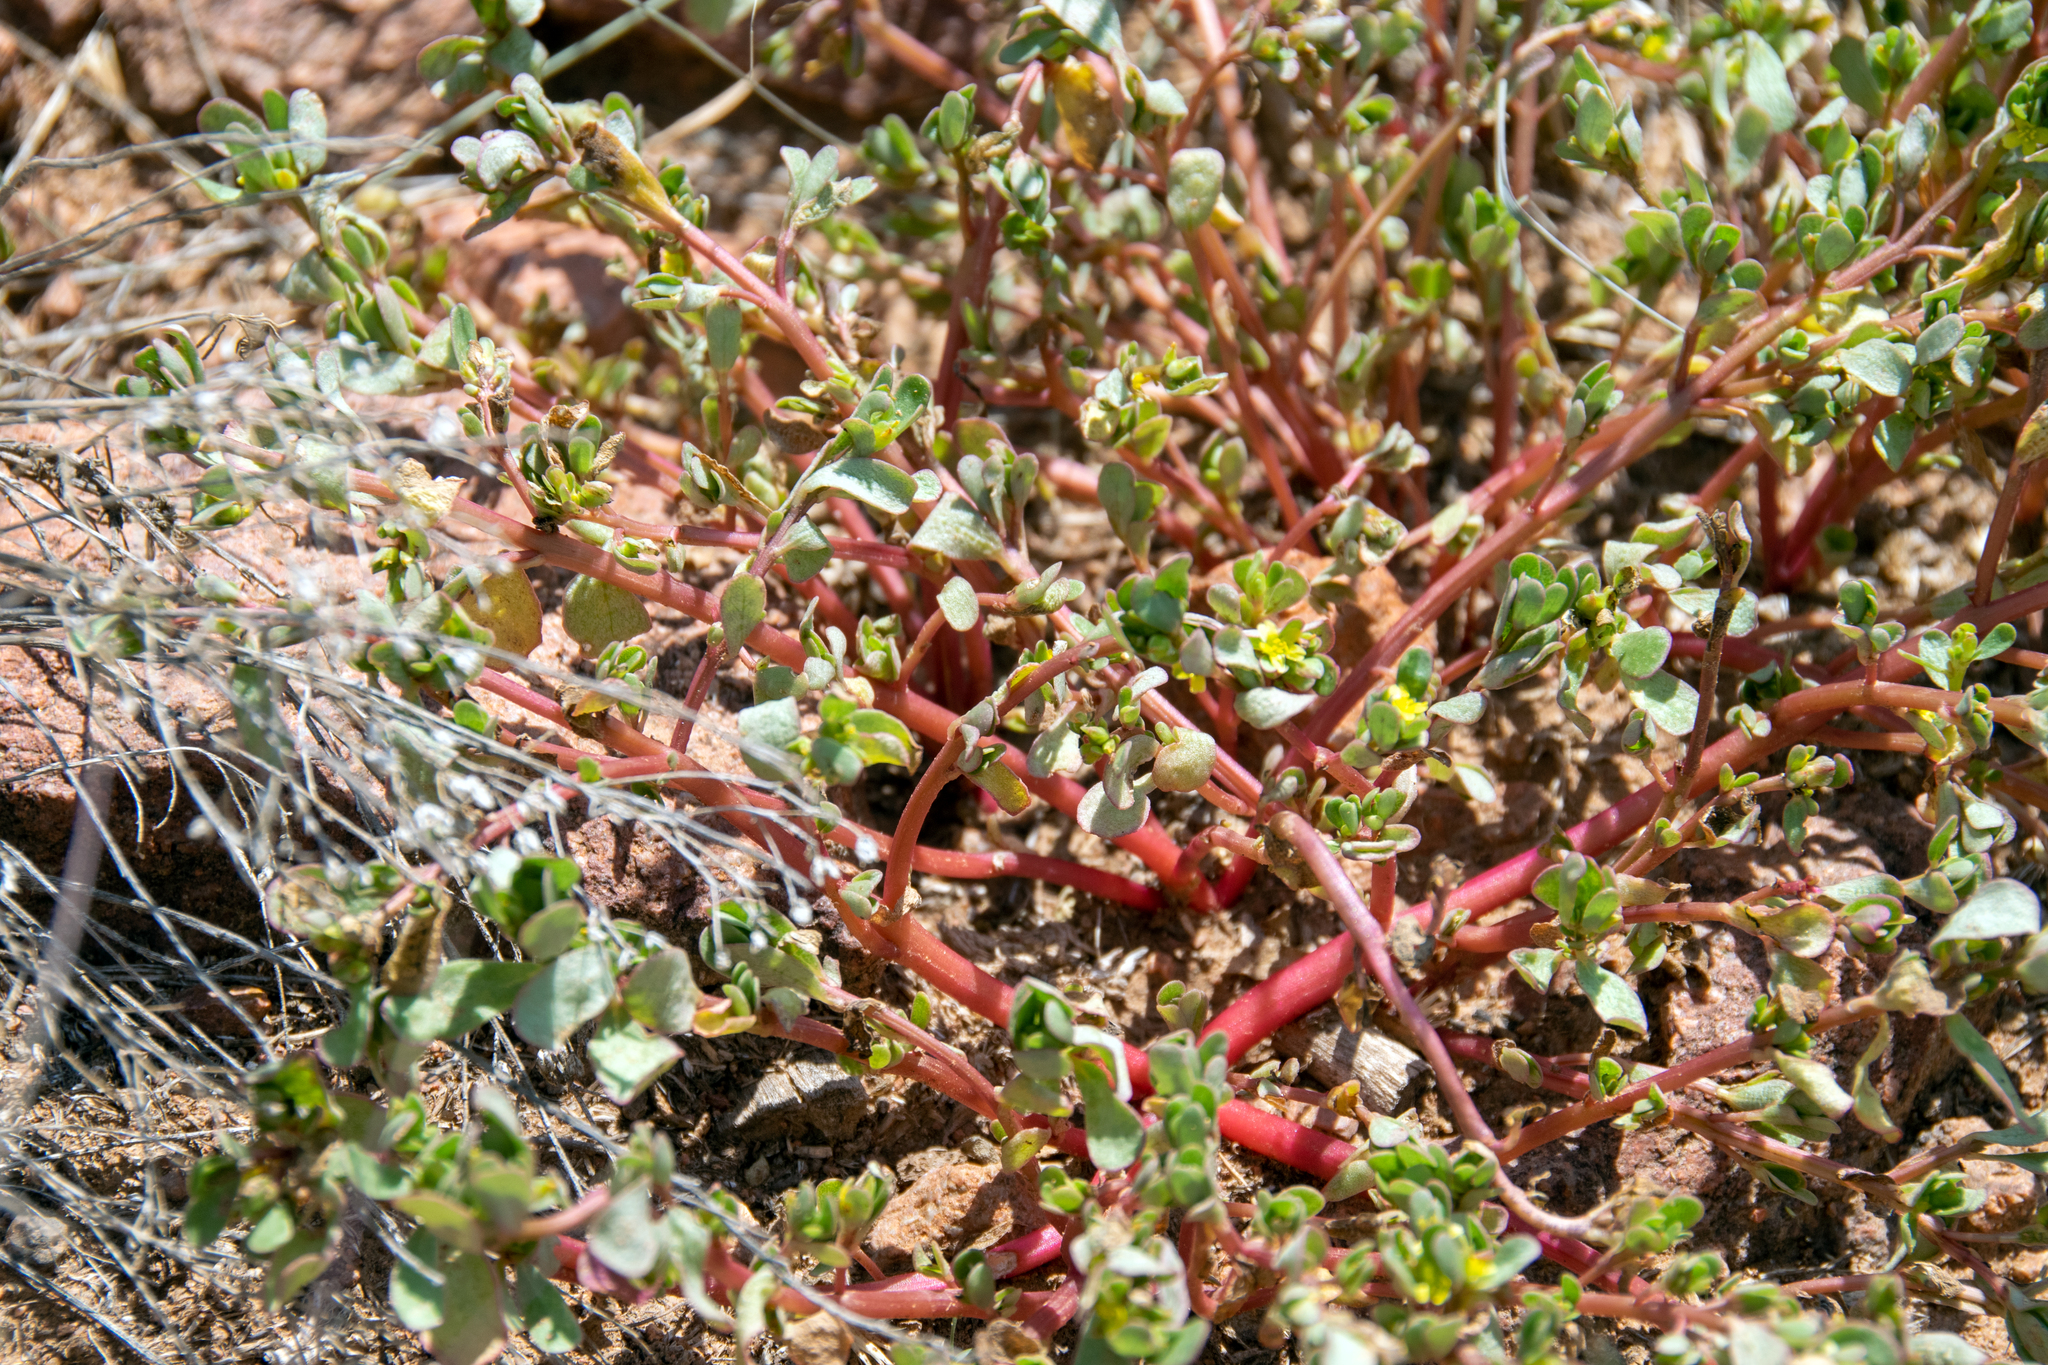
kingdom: Plantae
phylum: Tracheophyta
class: Magnoliopsida
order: Caryophyllales
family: Portulacaceae
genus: Portulaca
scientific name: Portulaca oleracea
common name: Common purslane
